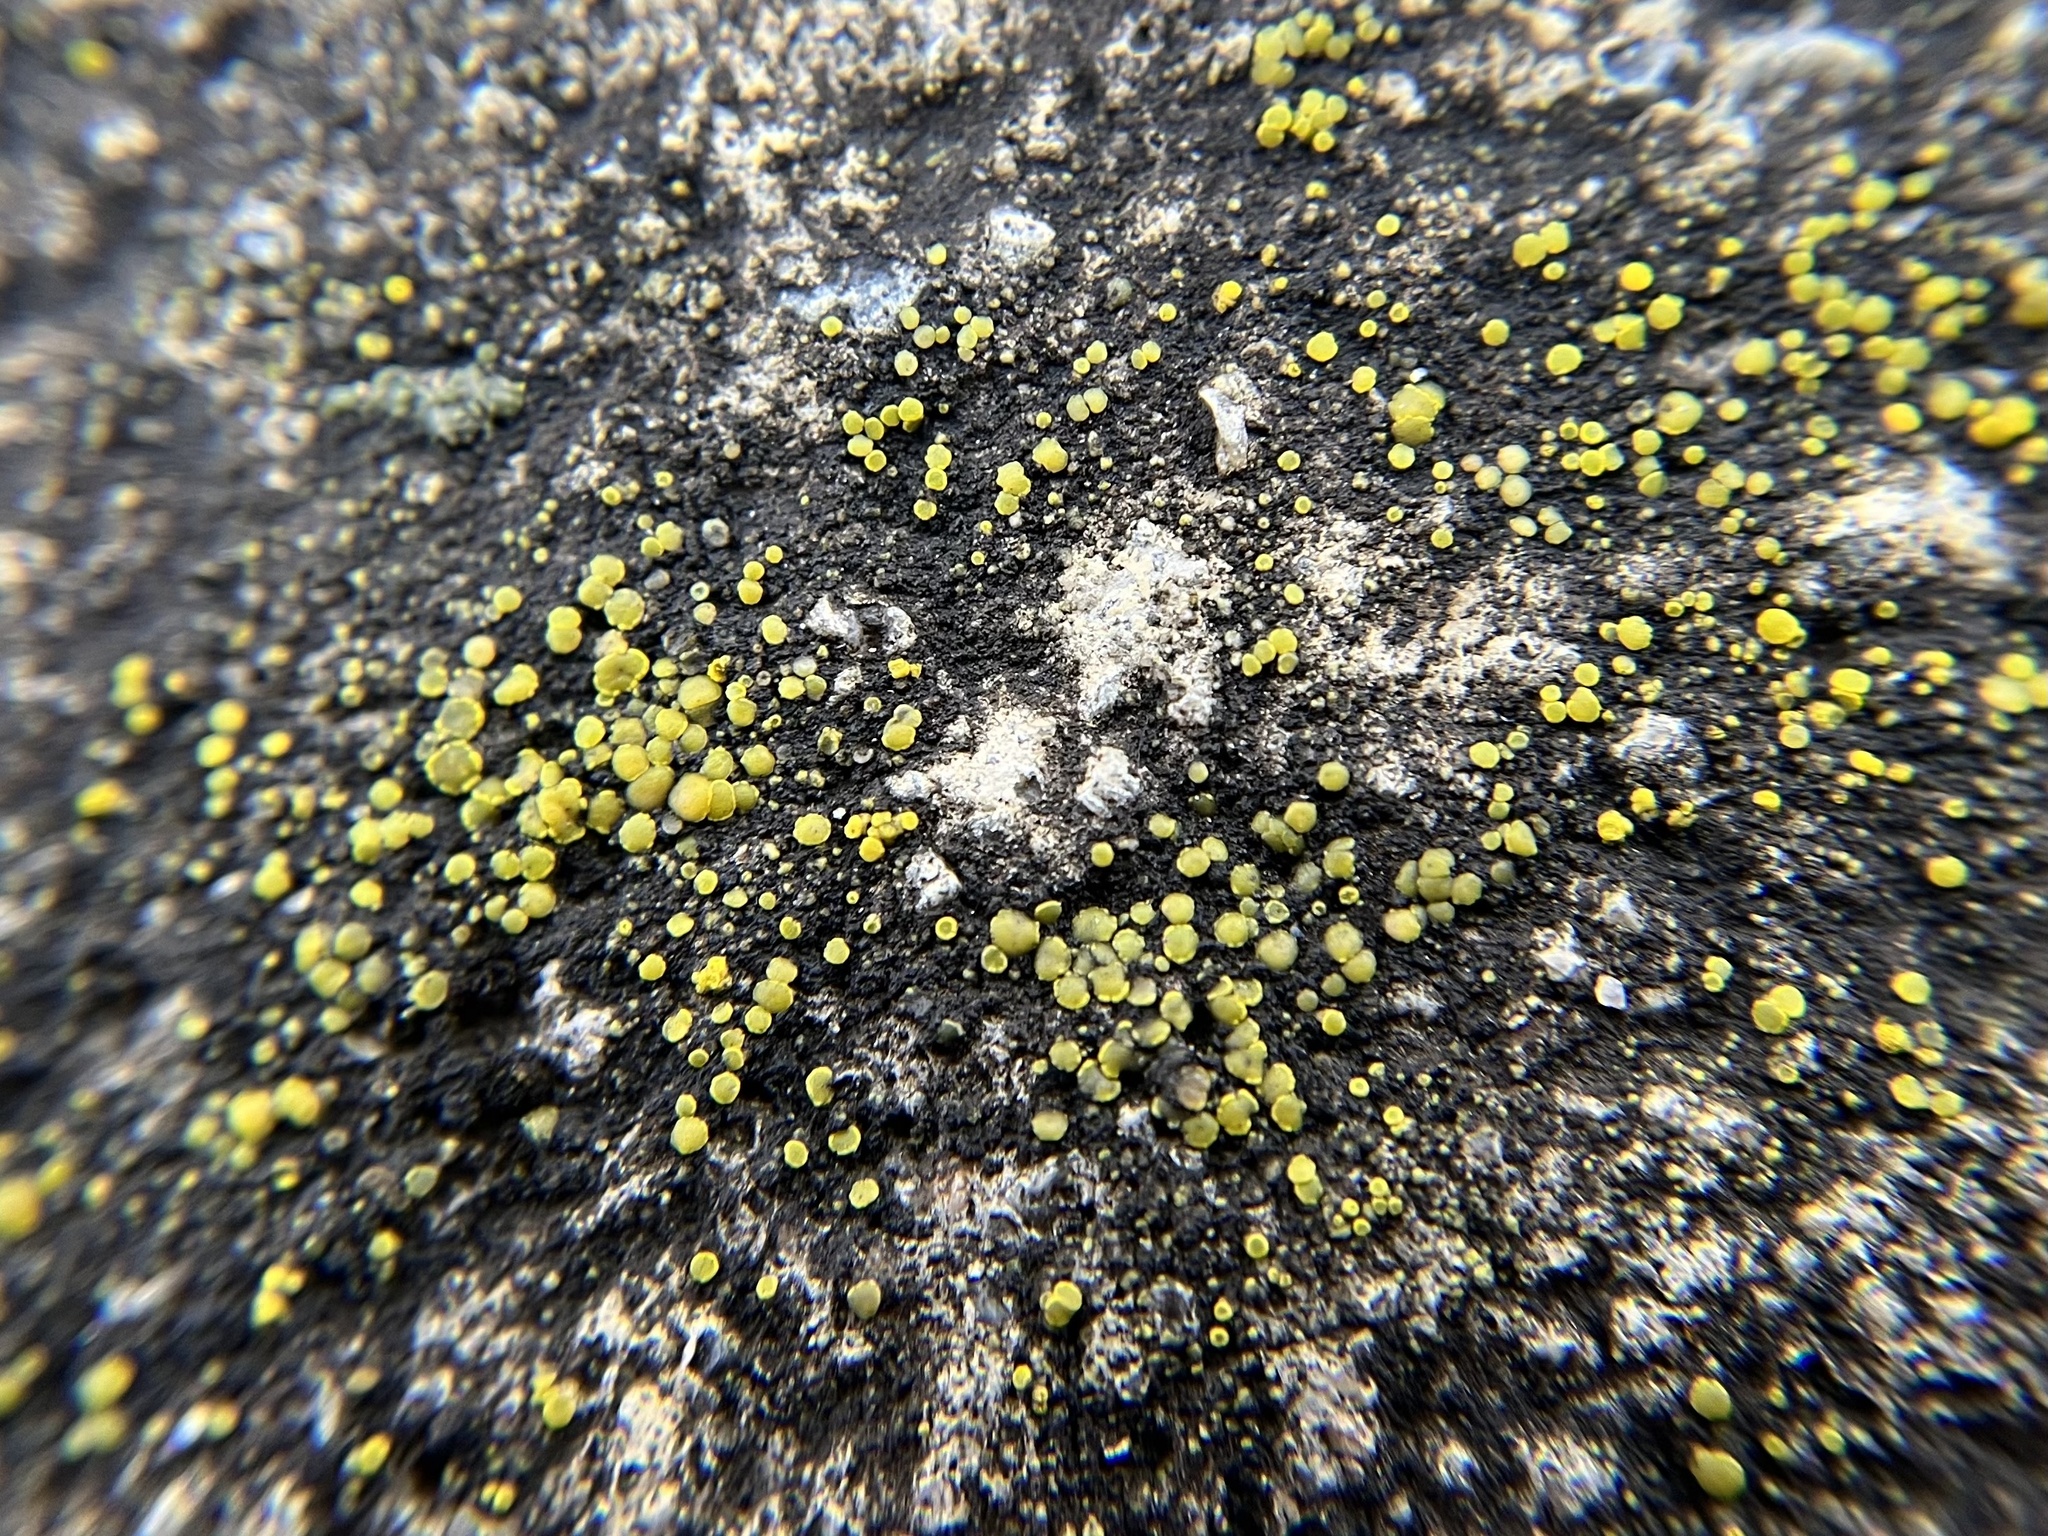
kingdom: Fungi
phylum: Ascomycota
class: Candelariomycetes
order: Candelariales
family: Candelariaceae
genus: Candelariella
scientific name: Candelariella aurella
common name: Hidden goldspeck lichen
